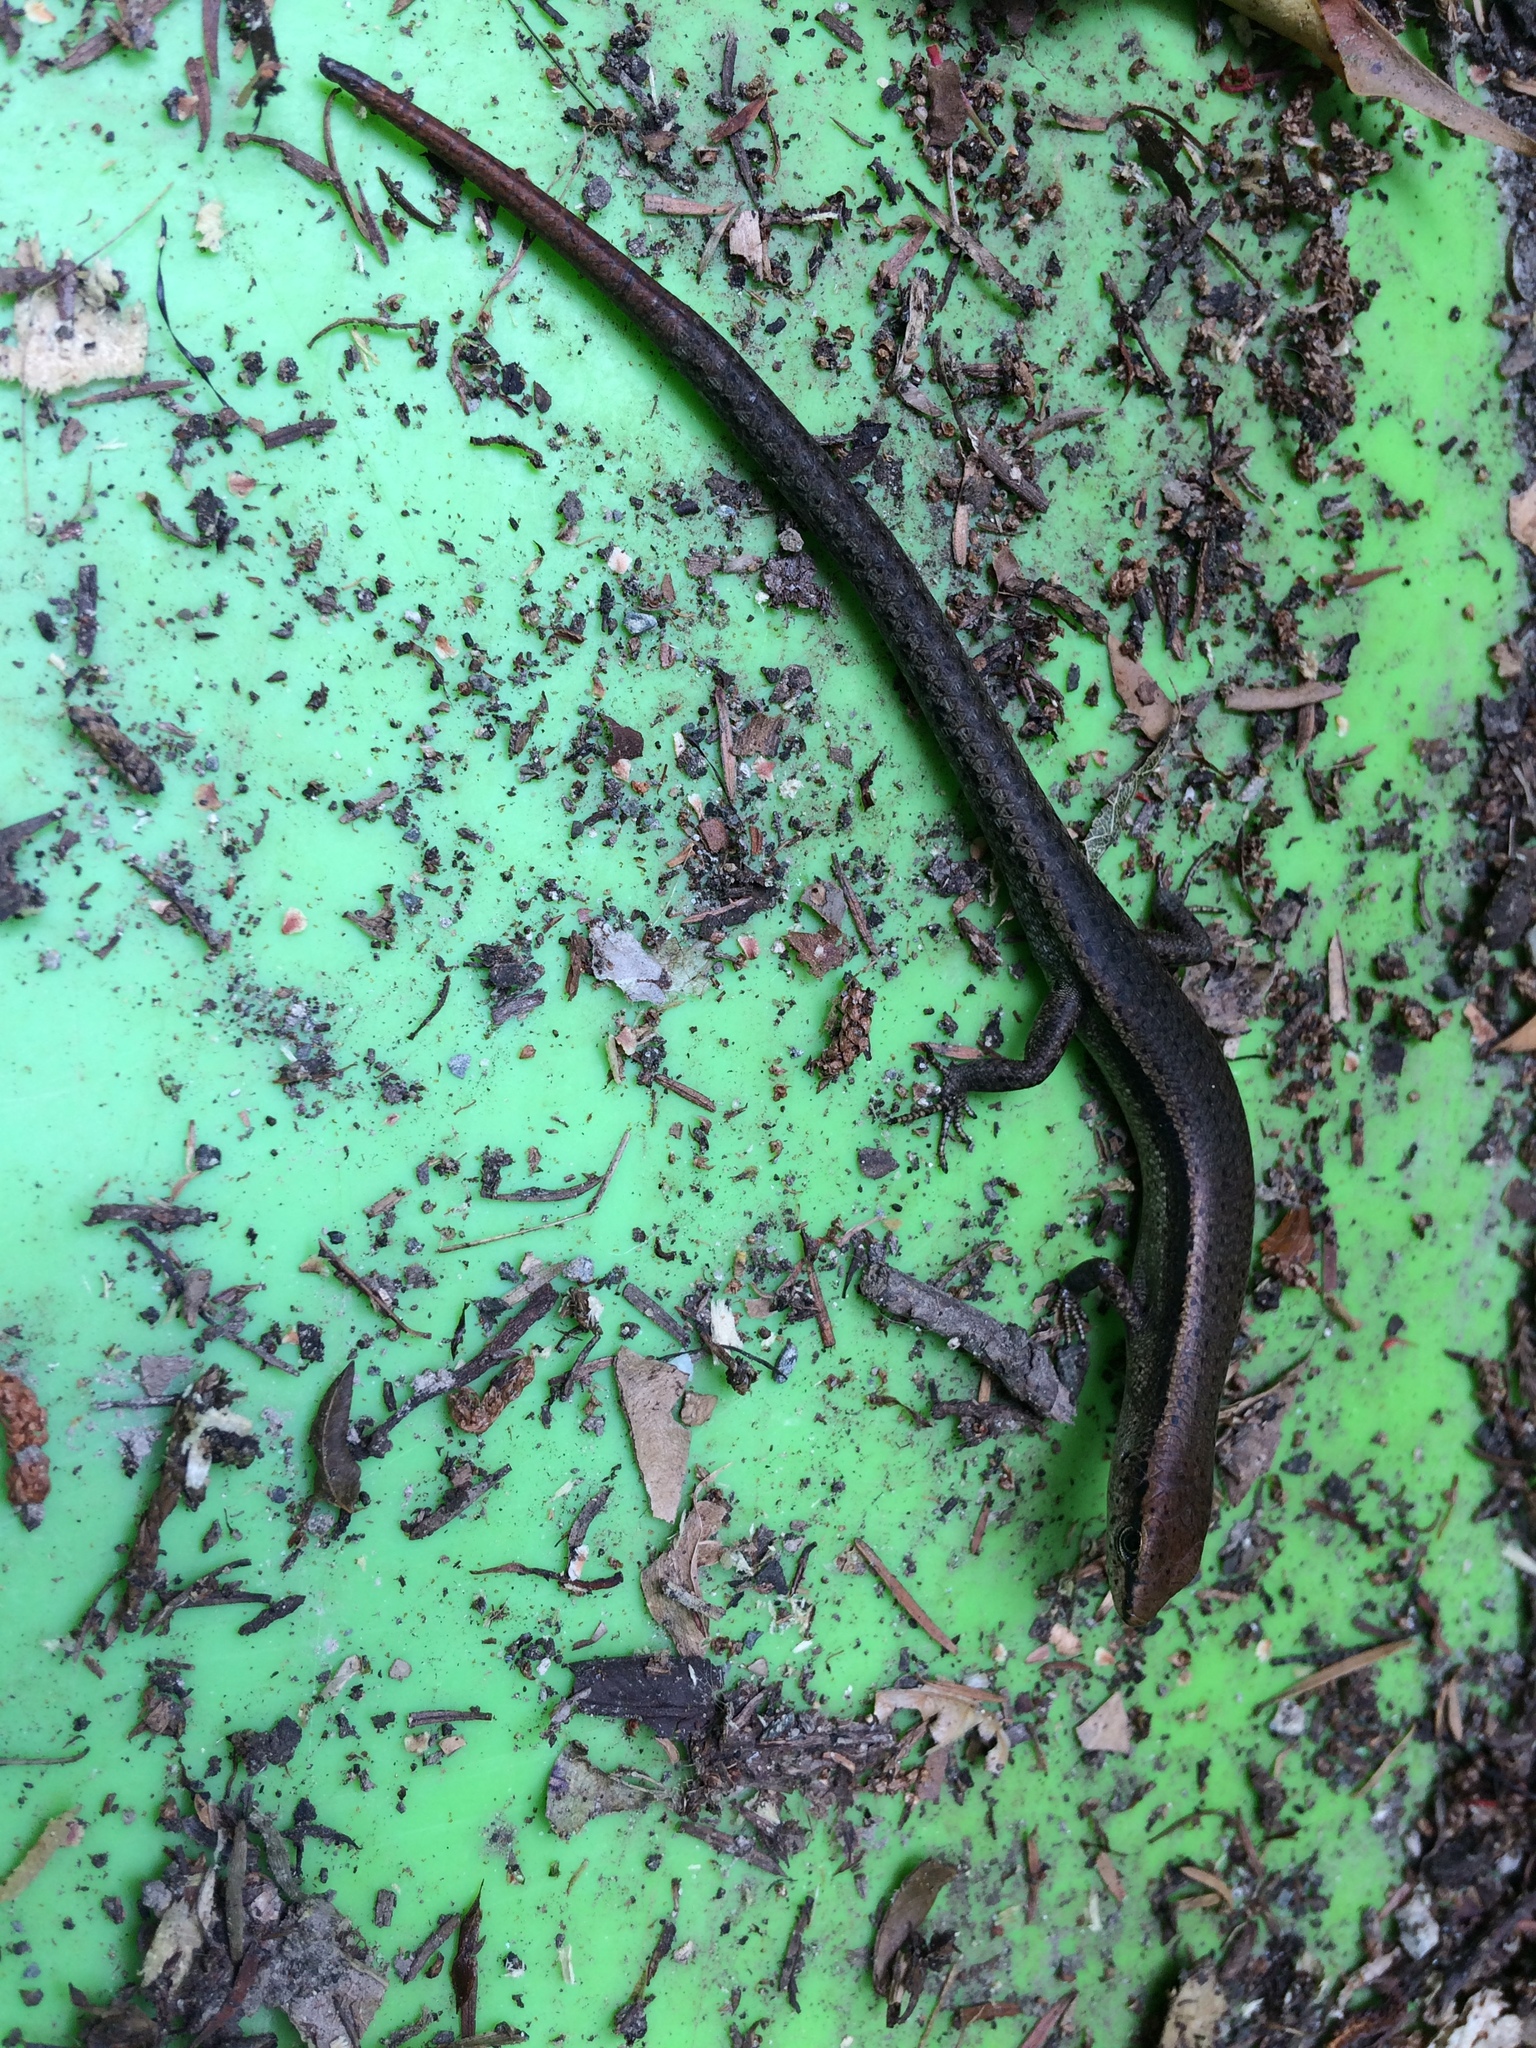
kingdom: Animalia
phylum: Chordata
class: Squamata
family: Scincidae
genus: Lampropholis
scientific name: Lampropholis delicata
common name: Plague skink
